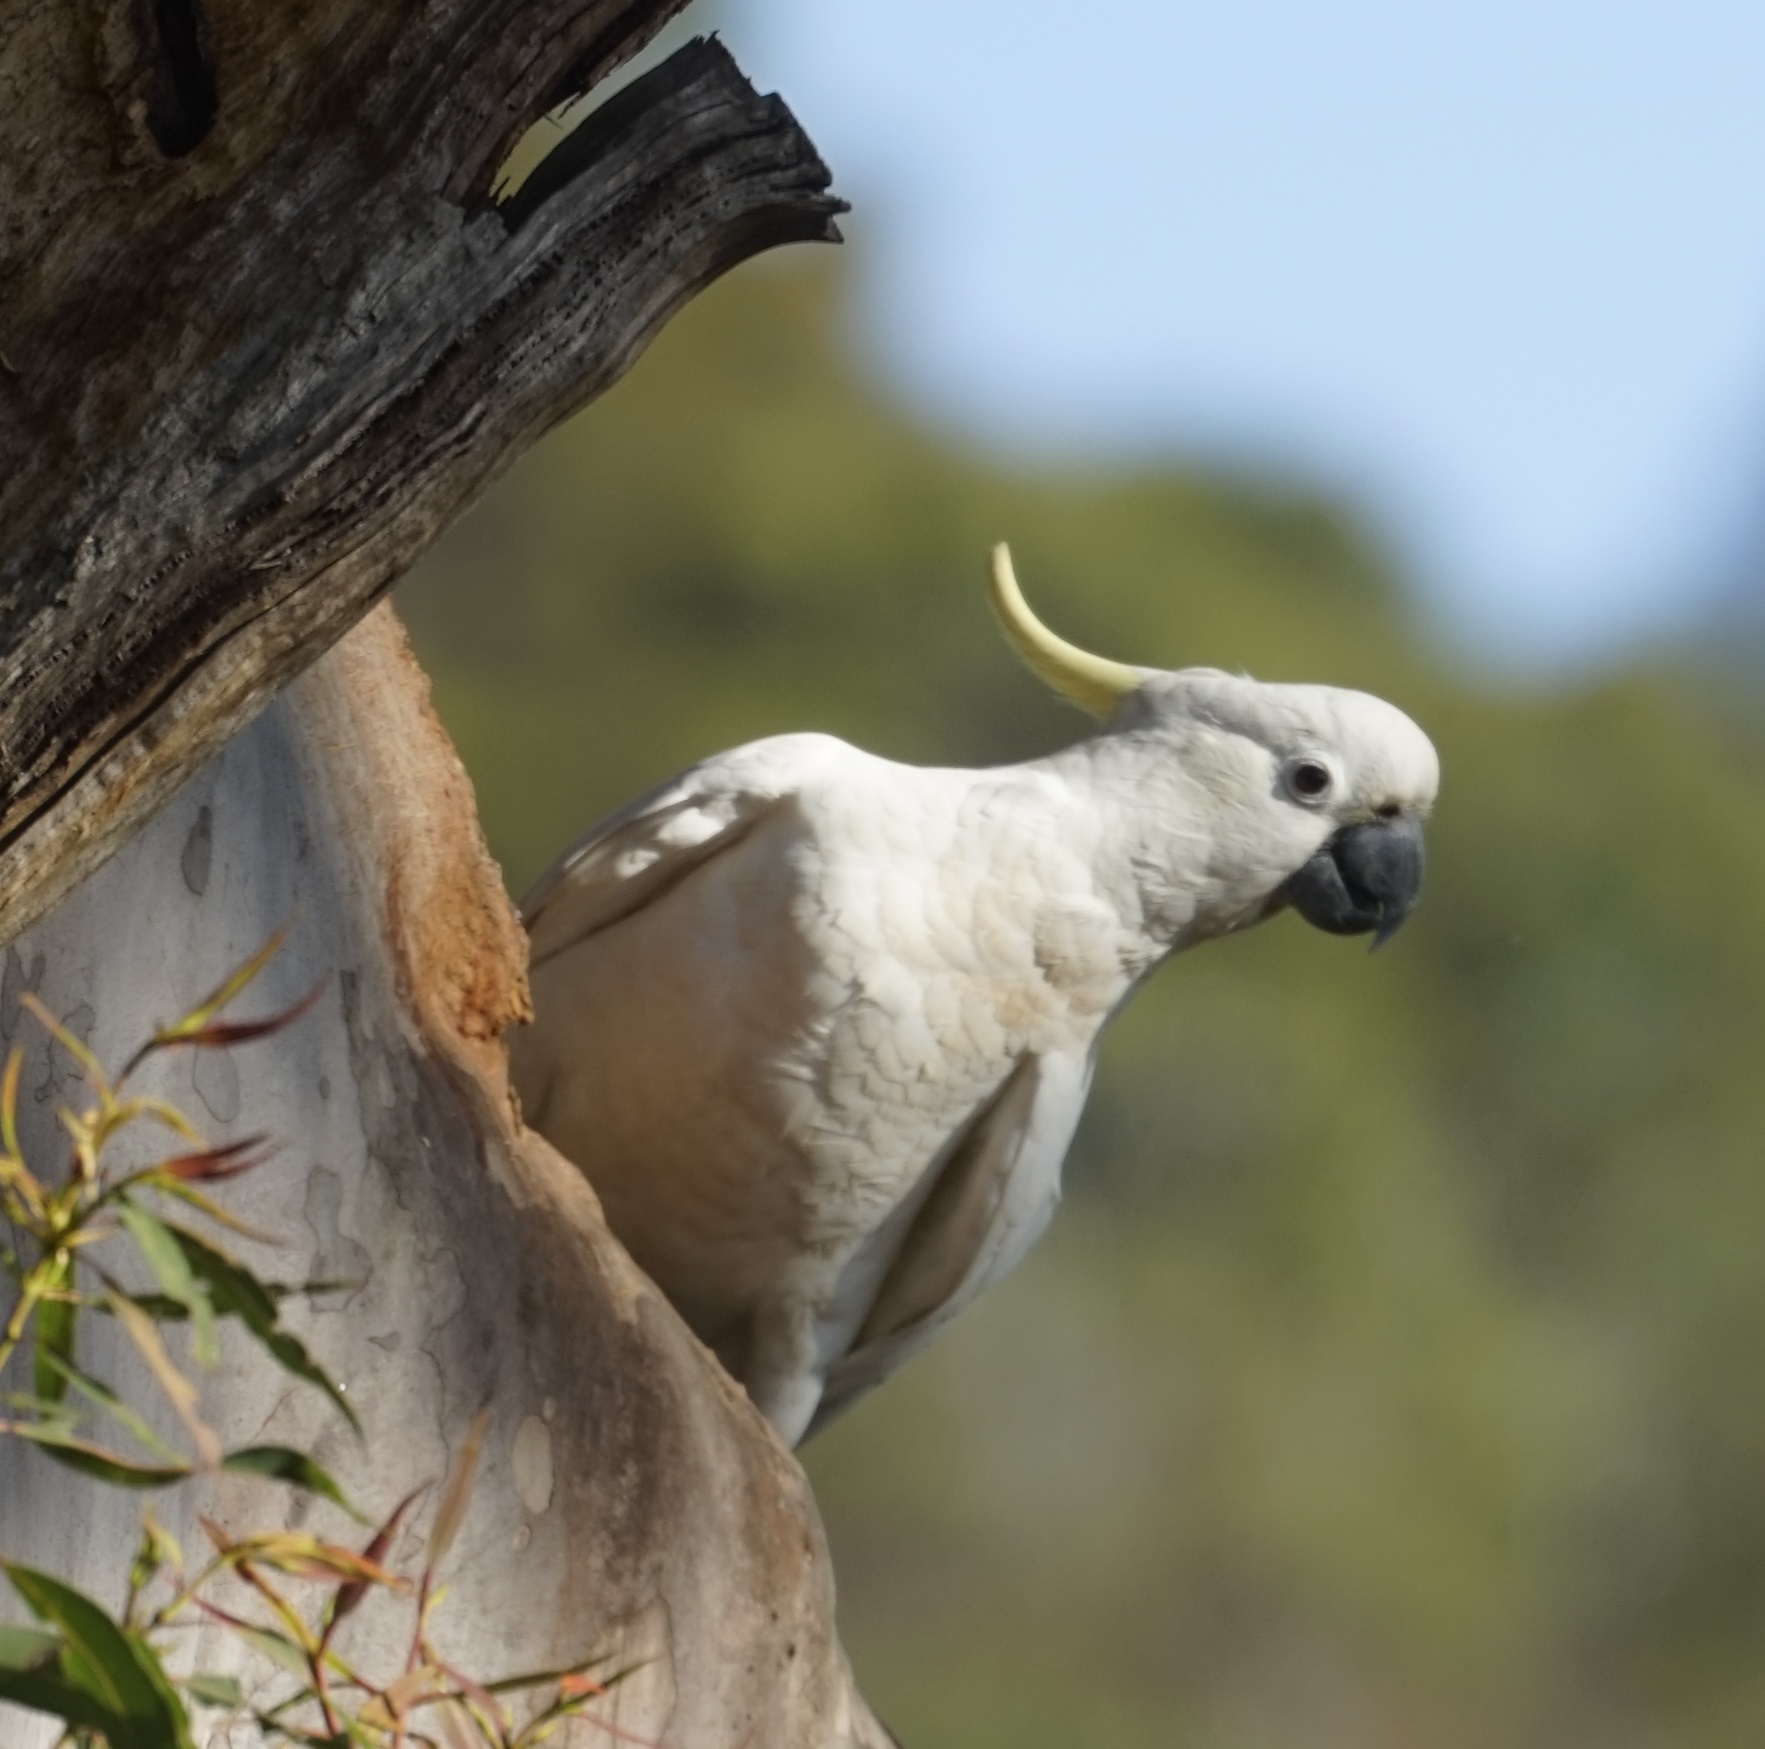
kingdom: Animalia
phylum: Chordata
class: Aves
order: Psittaciformes
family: Psittacidae
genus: Cacatua
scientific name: Cacatua galerita
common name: Sulphur-crested cockatoo
